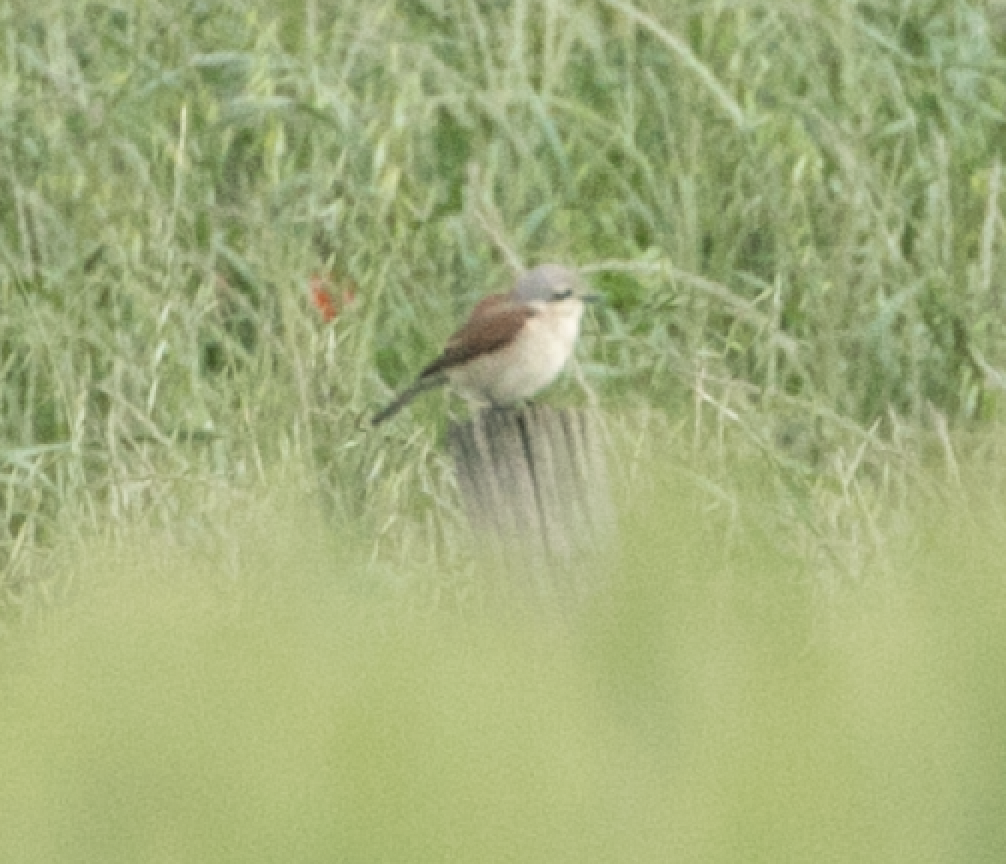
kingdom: Animalia
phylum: Chordata
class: Aves
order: Passeriformes
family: Laniidae
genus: Lanius
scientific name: Lanius collurio
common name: Red-backed shrike
